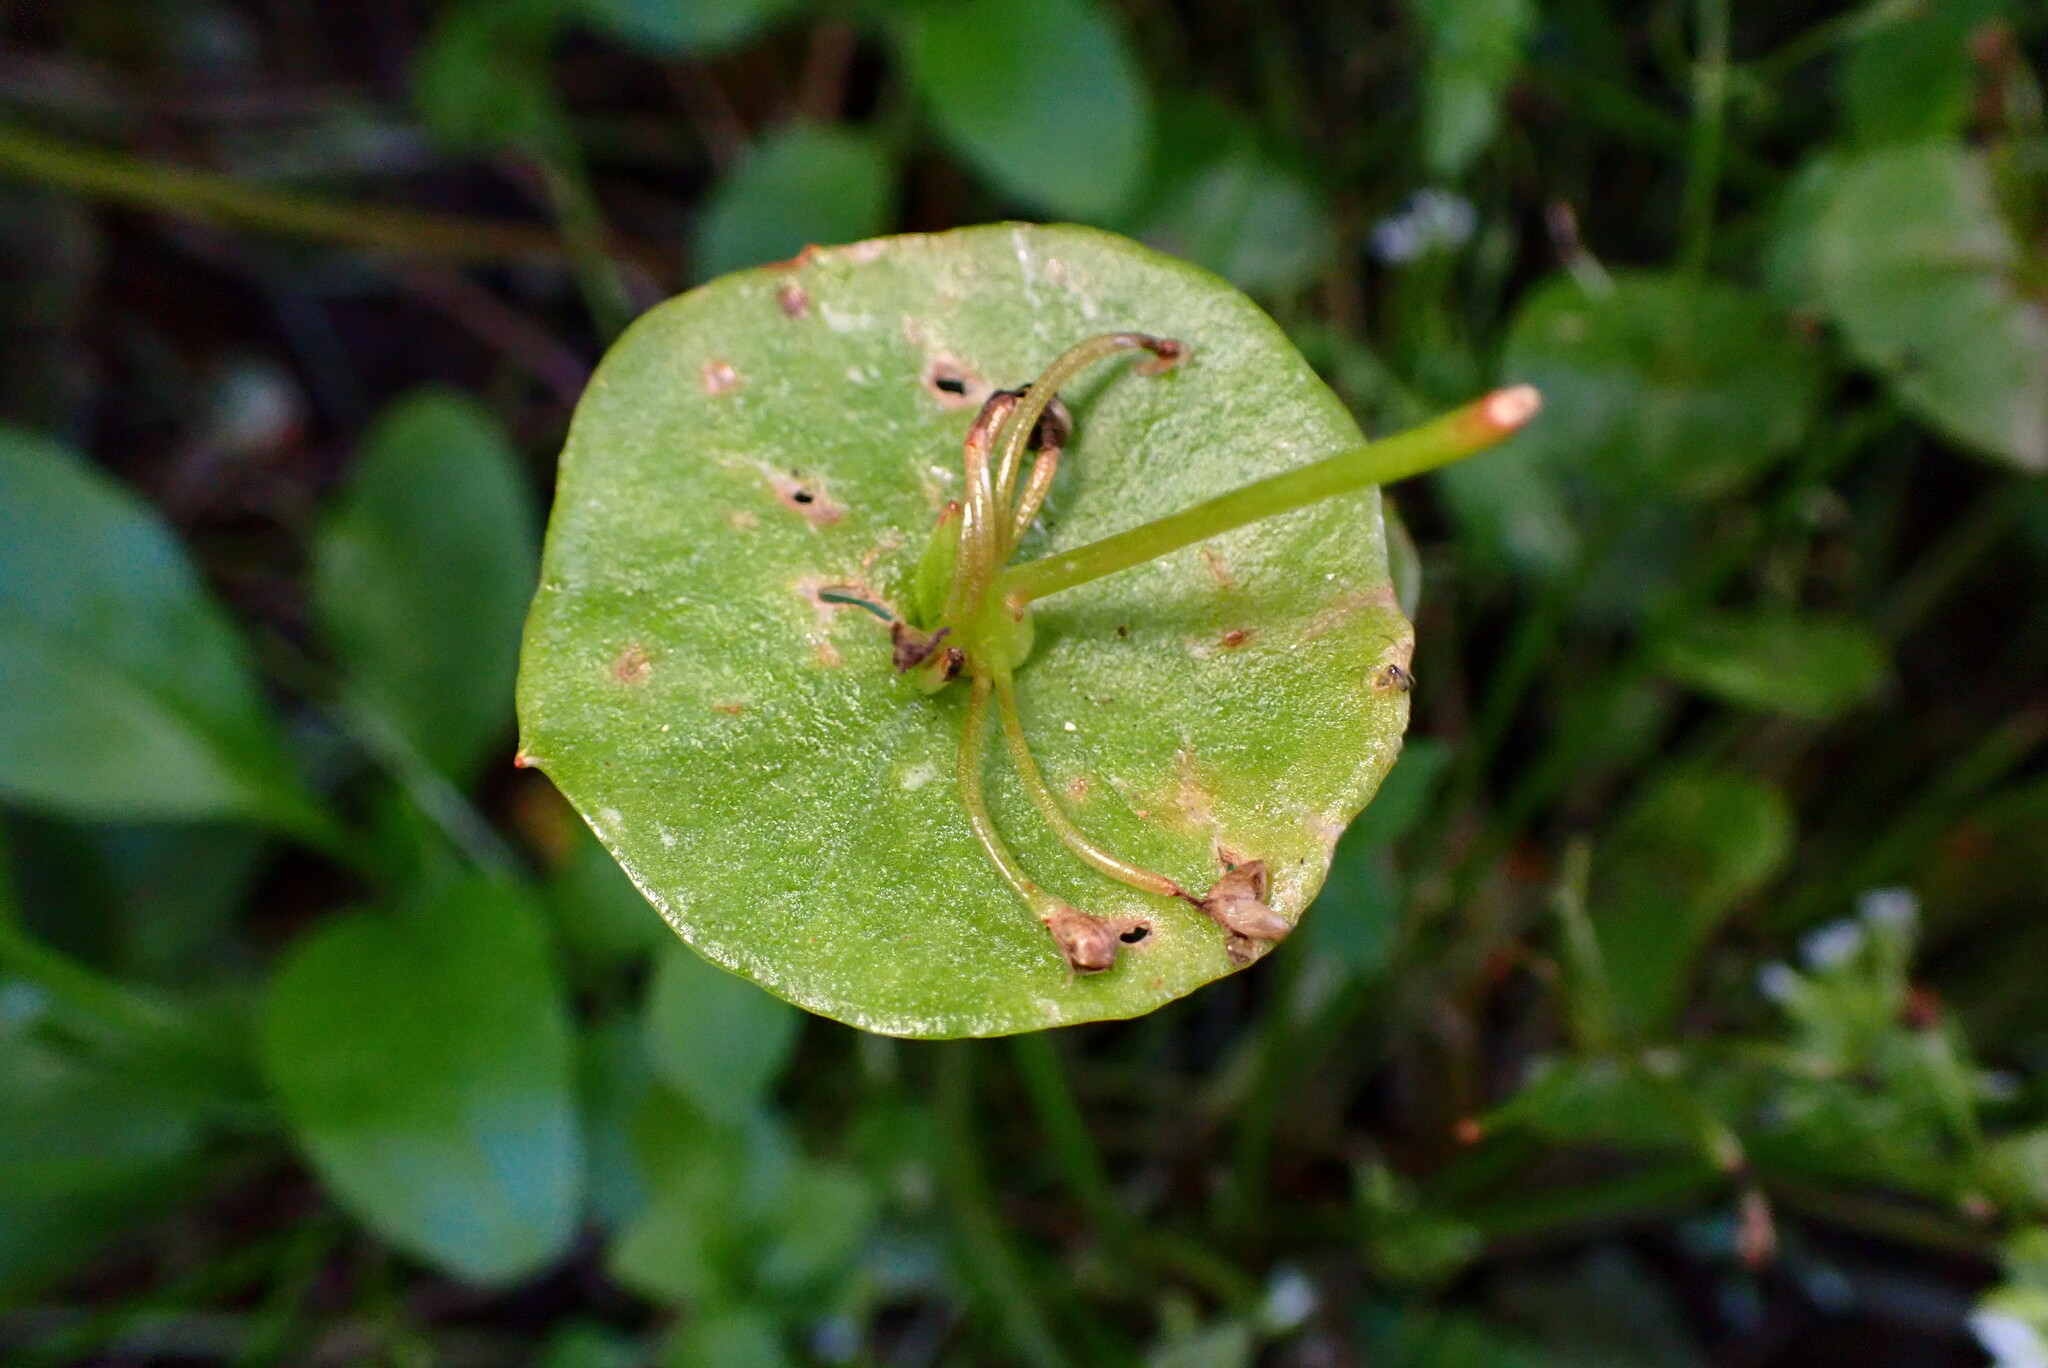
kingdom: Plantae
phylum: Tracheophyta
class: Magnoliopsida
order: Caryophyllales
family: Montiaceae
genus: Claytonia
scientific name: Claytonia perfoliata
